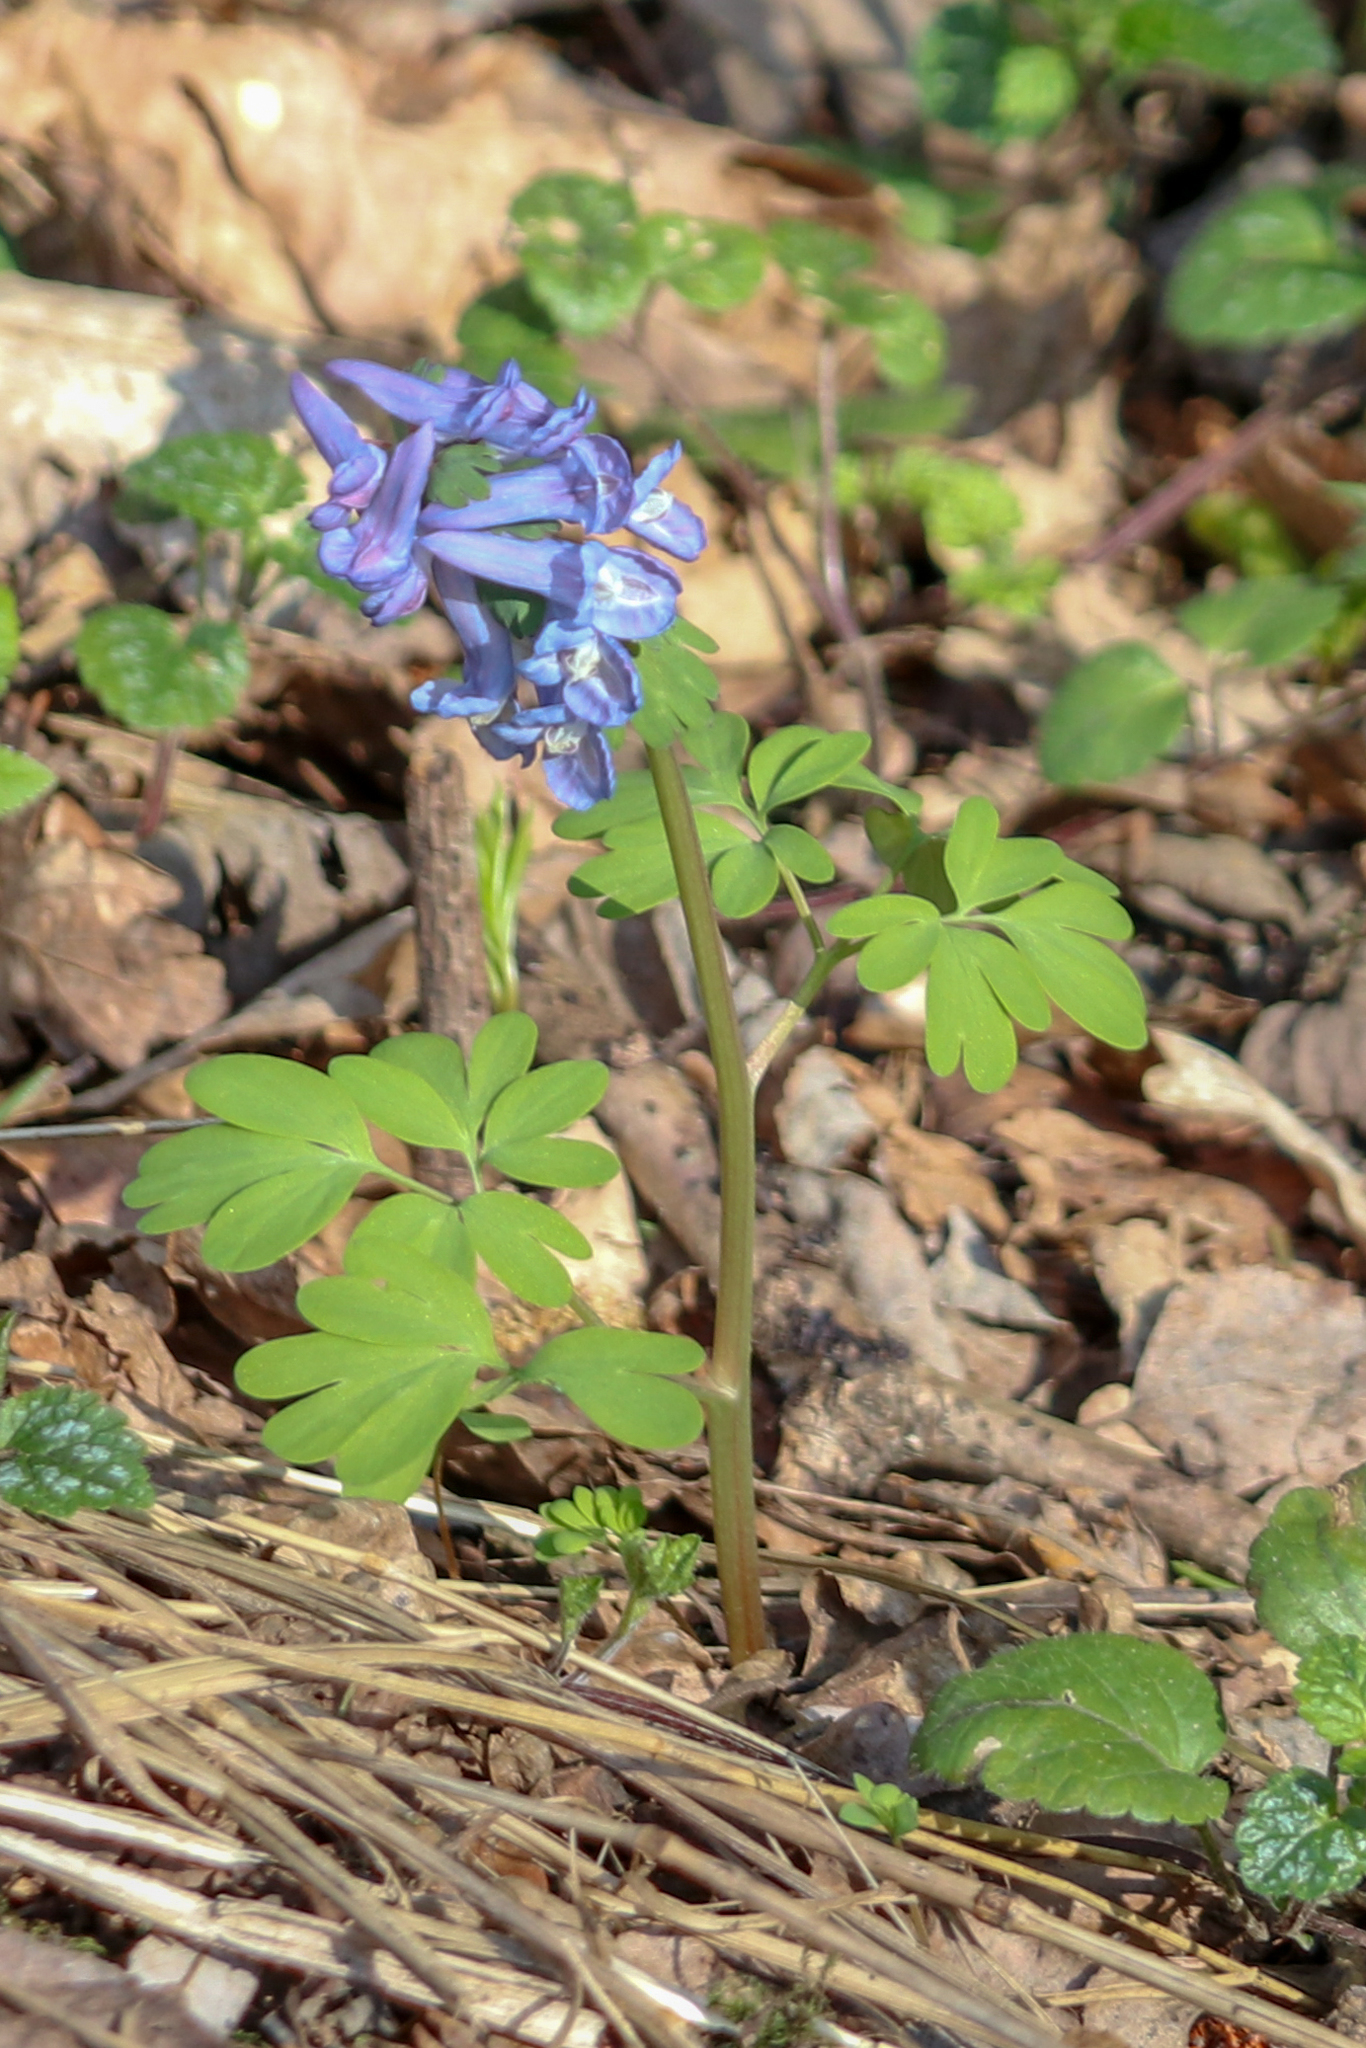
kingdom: Plantae
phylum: Tracheophyta
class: Magnoliopsida
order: Ranunculales
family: Papaveraceae
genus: Corydalis
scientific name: Corydalis solida
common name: Bird-in-a-bush
